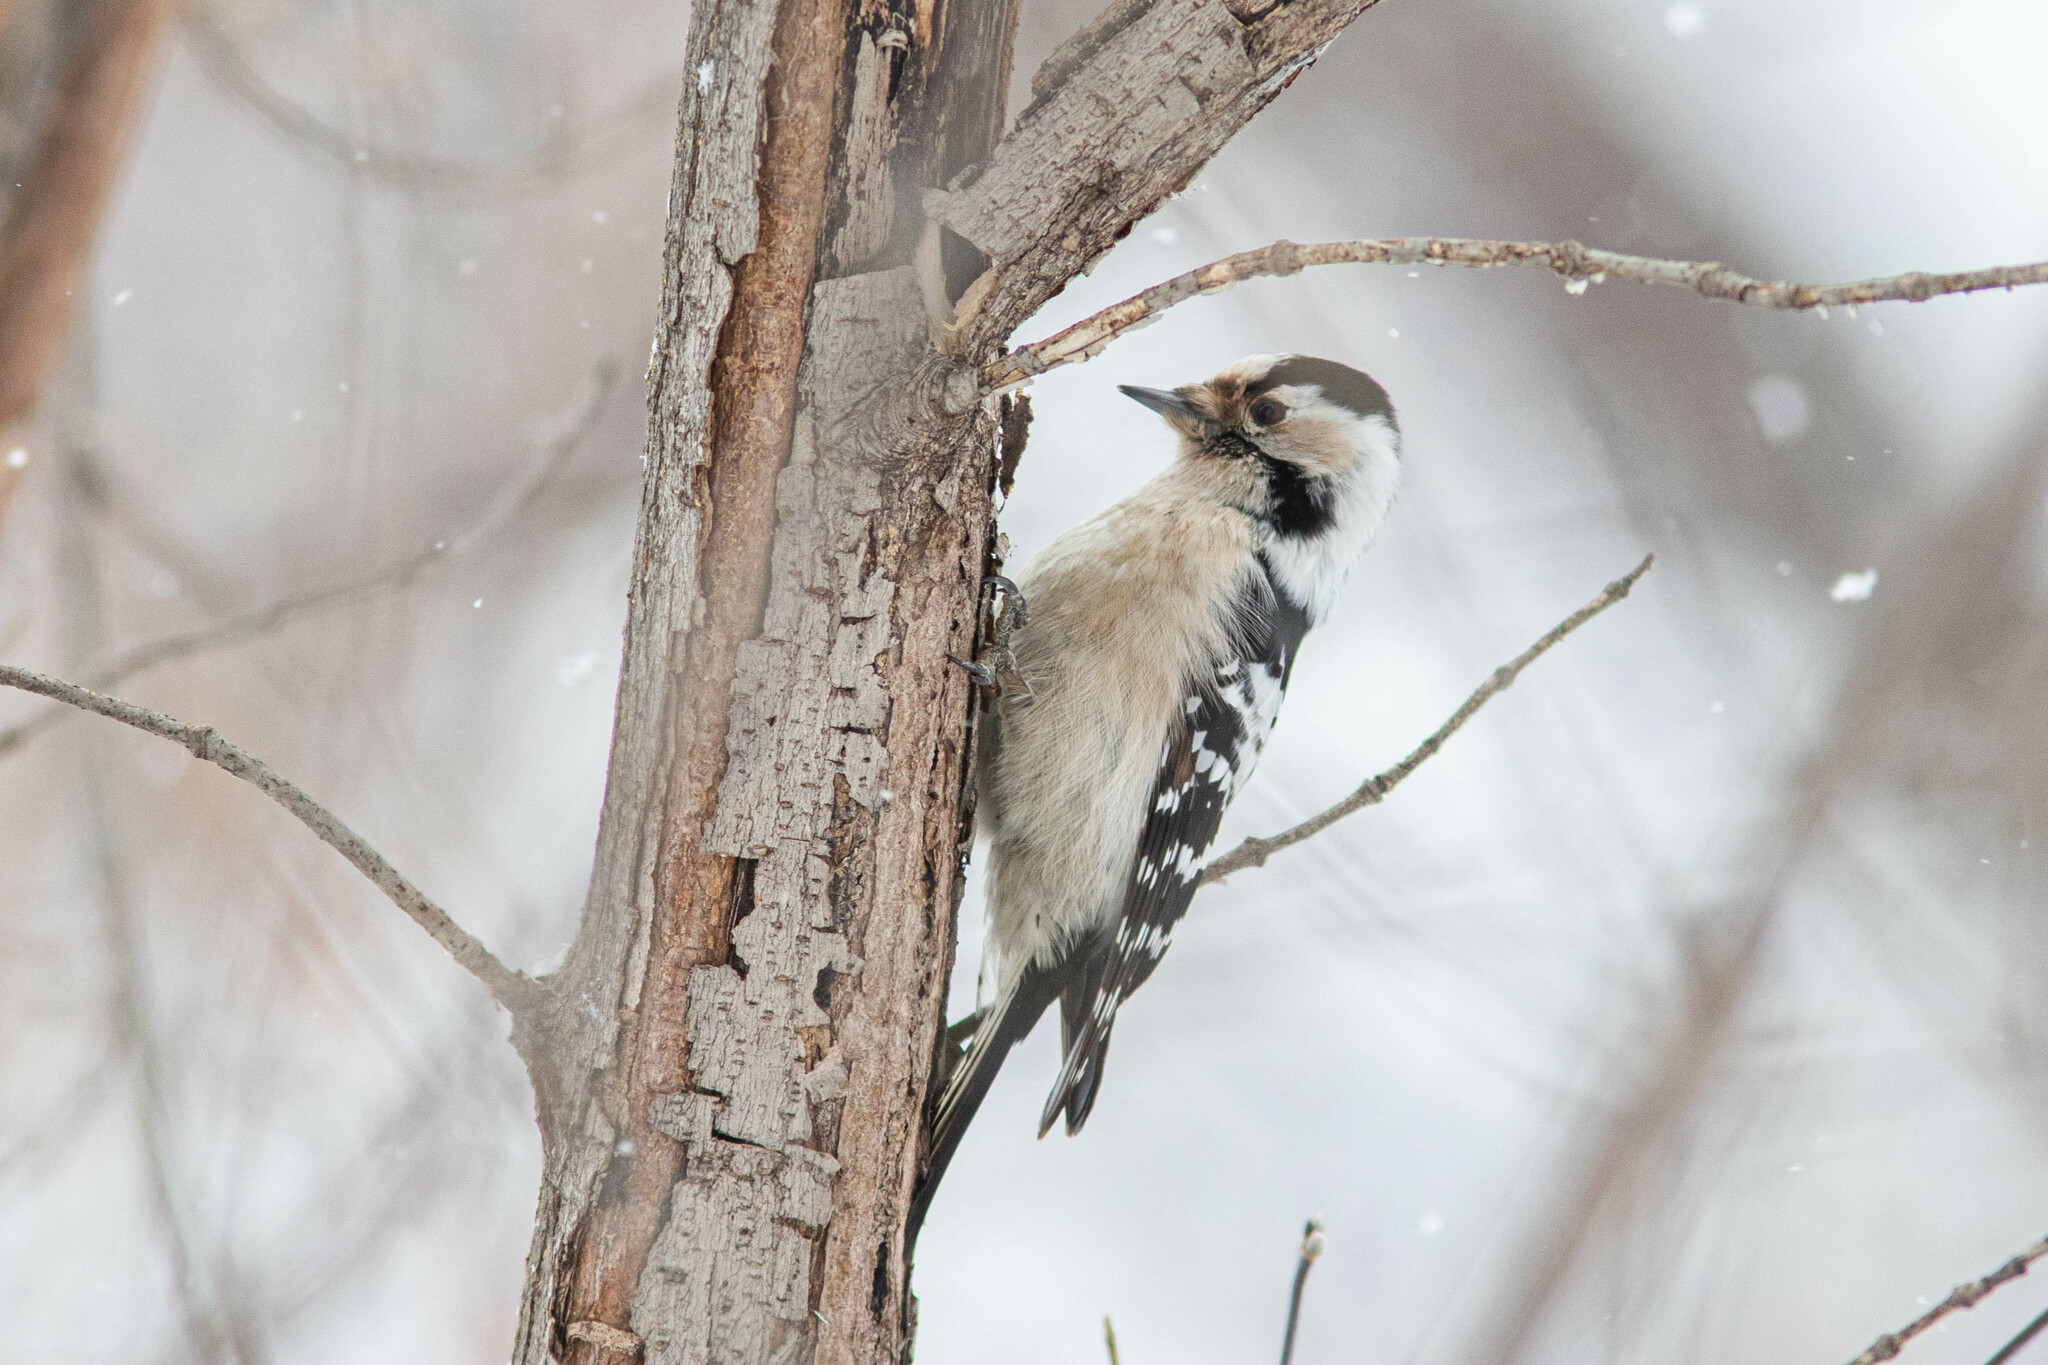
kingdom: Animalia
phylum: Chordata
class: Aves
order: Piciformes
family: Picidae
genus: Dryobates
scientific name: Dryobates minor
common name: Lesser spotted woodpecker
